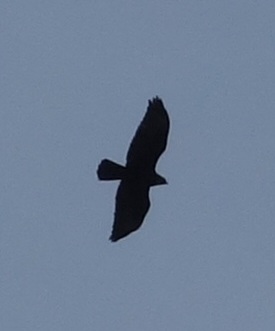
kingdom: Animalia
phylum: Chordata
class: Aves
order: Accipitriformes
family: Accipitridae
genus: Buteo
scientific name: Buteo buteo
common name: Common buzzard
